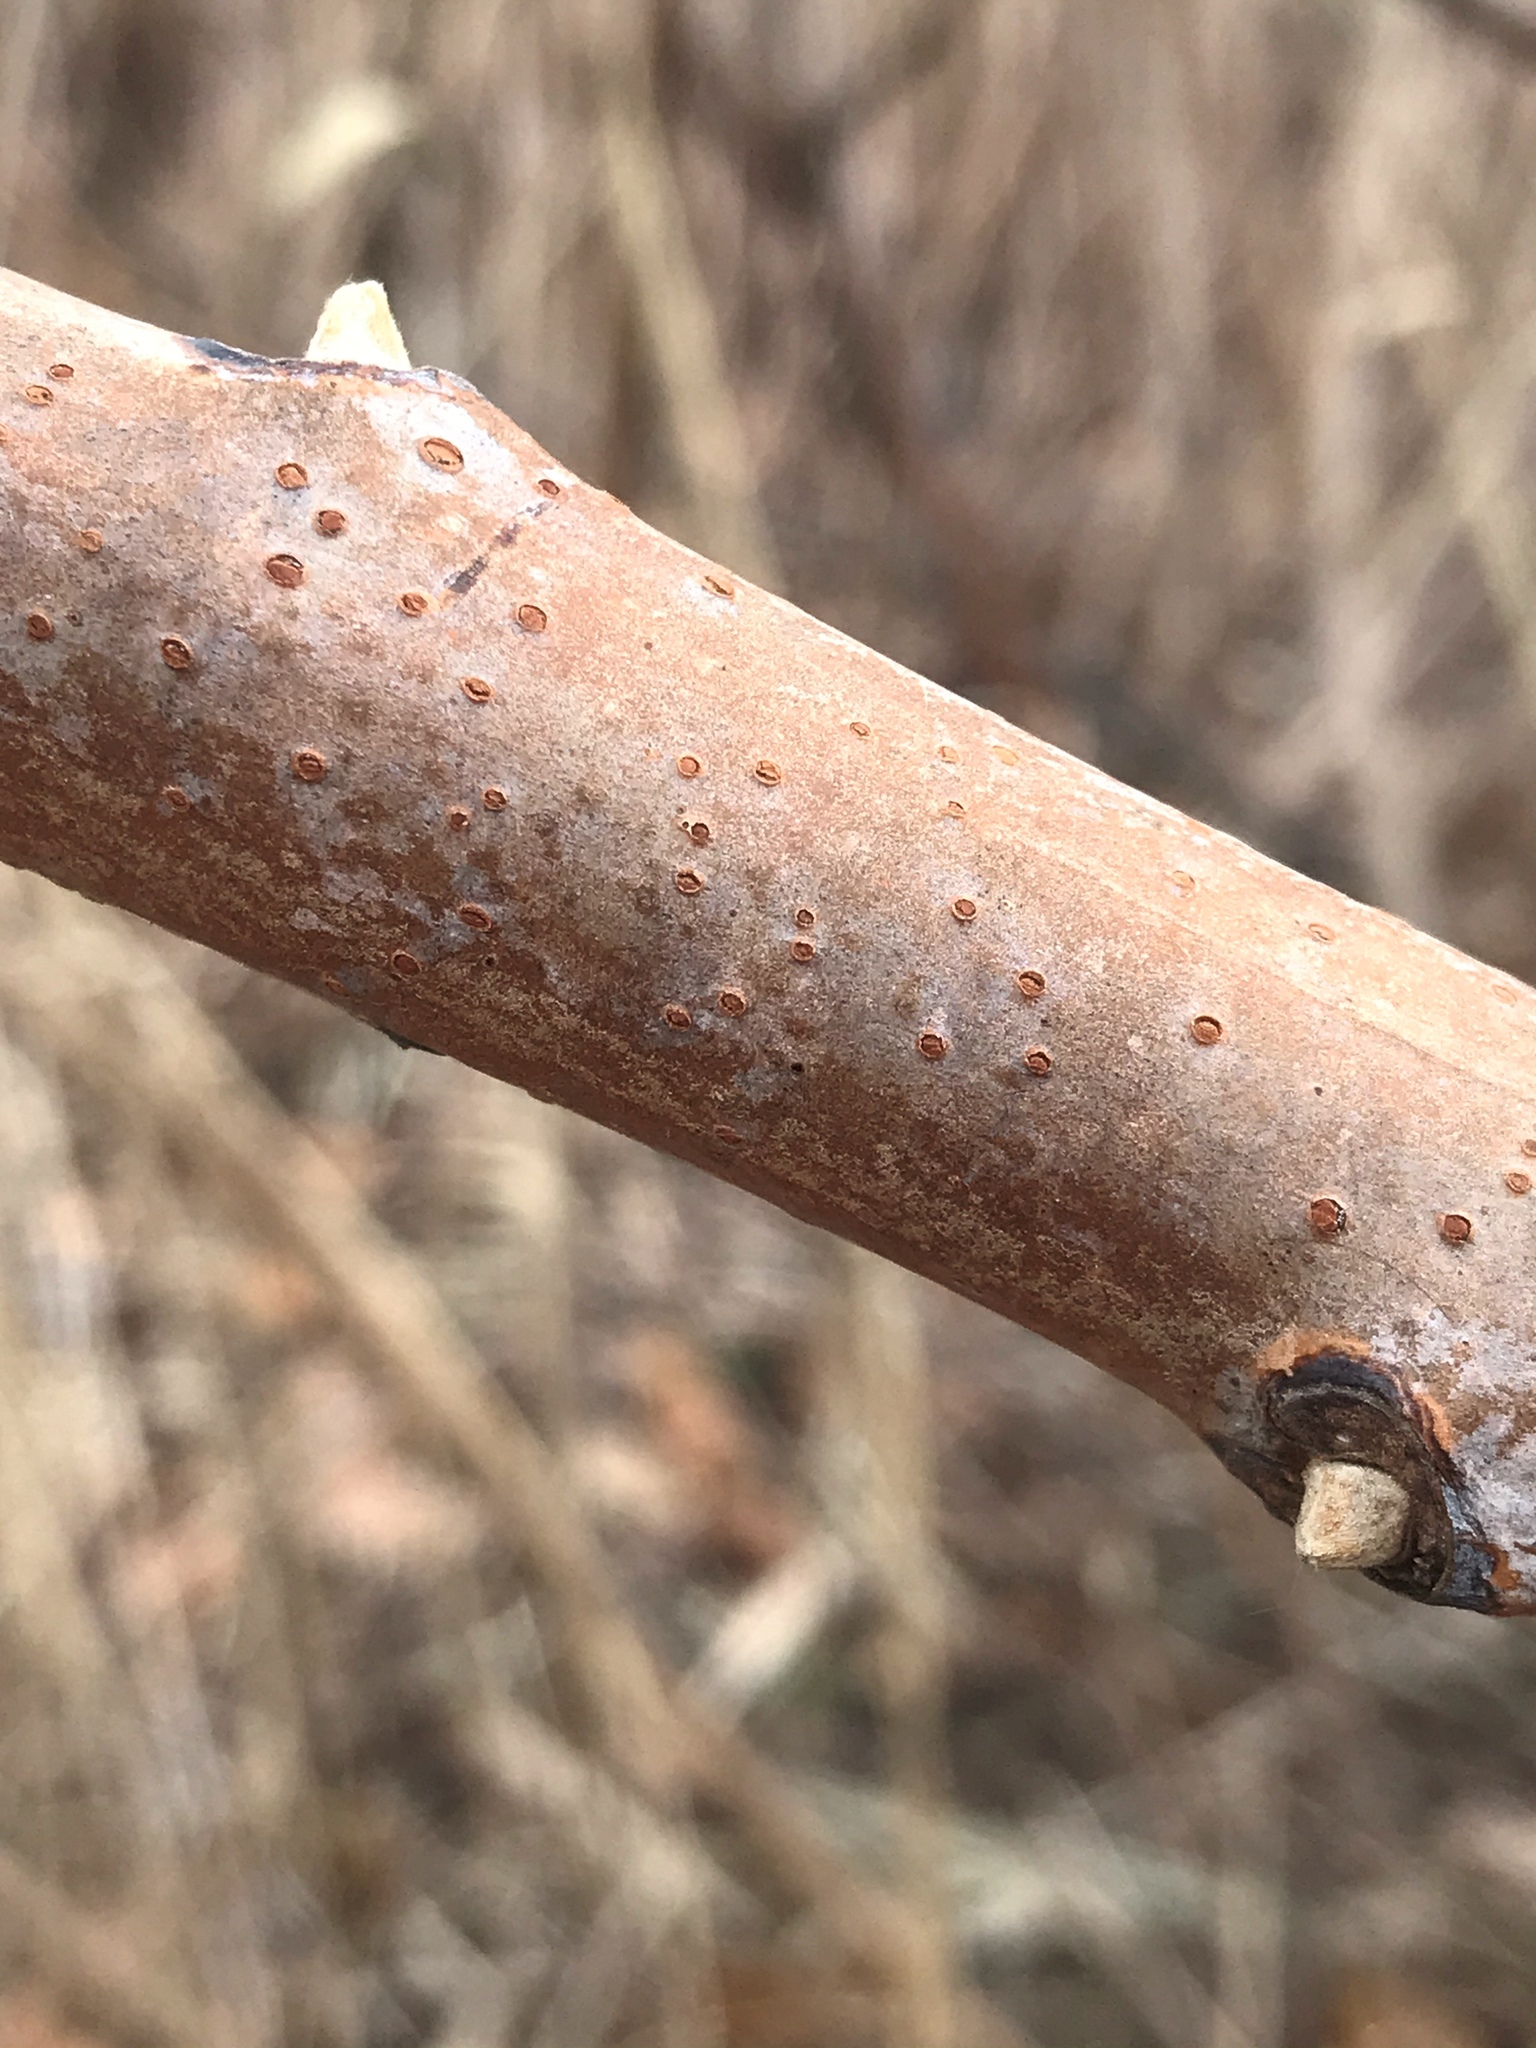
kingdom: Plantae
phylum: Tracheophyta
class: Magnoliopsida
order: Sapindales
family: Anacardiaceae
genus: Rhus
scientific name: Rhus glabra
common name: Scarlet sumac
